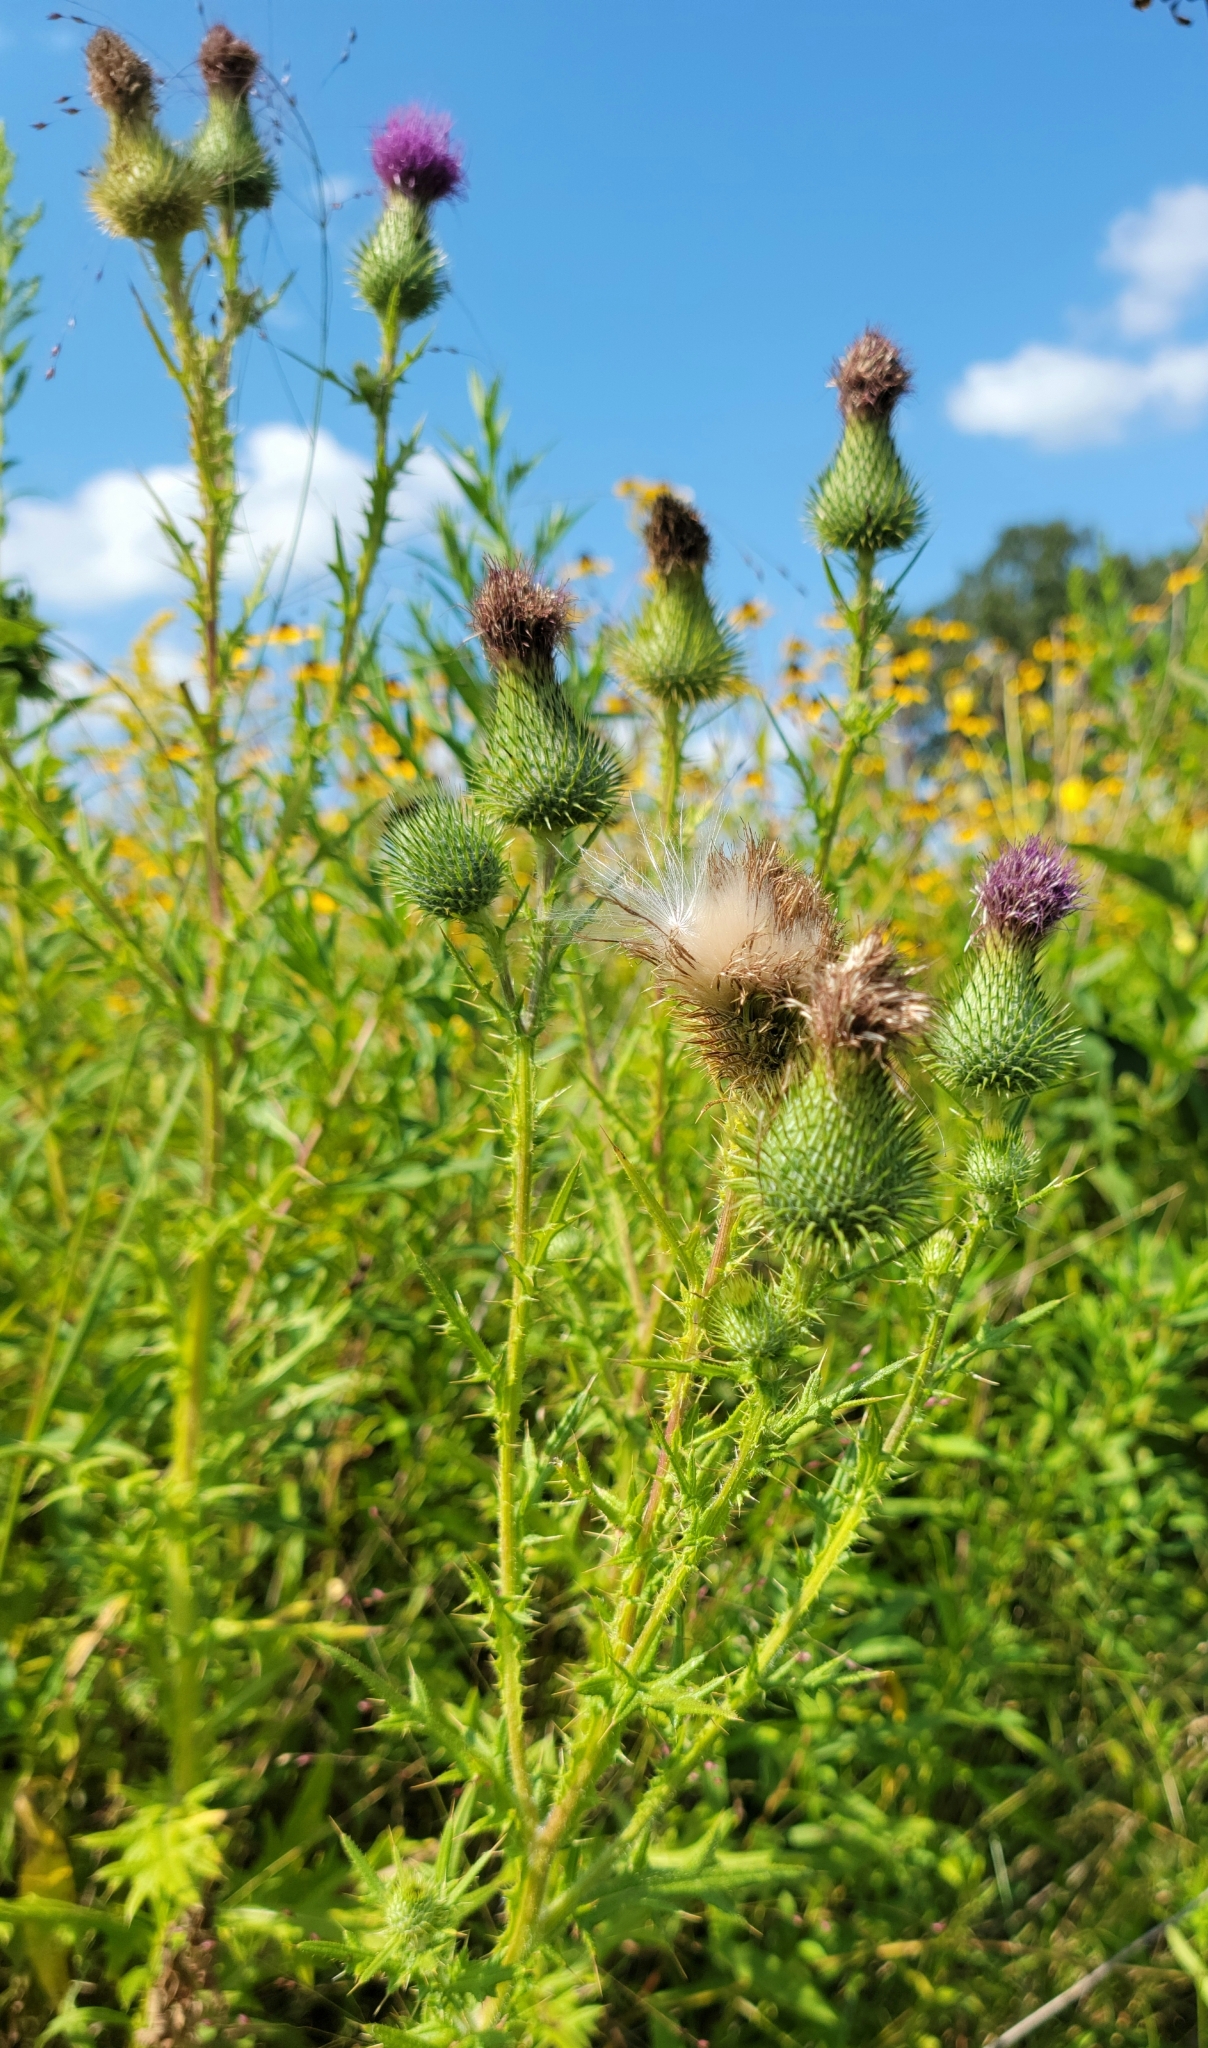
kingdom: Plantae
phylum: Tracheophyta
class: Magnoliopsida
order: Asterales
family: Asteraceae
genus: Cirsium
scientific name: Cirsium vulgare
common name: Bull thistle
